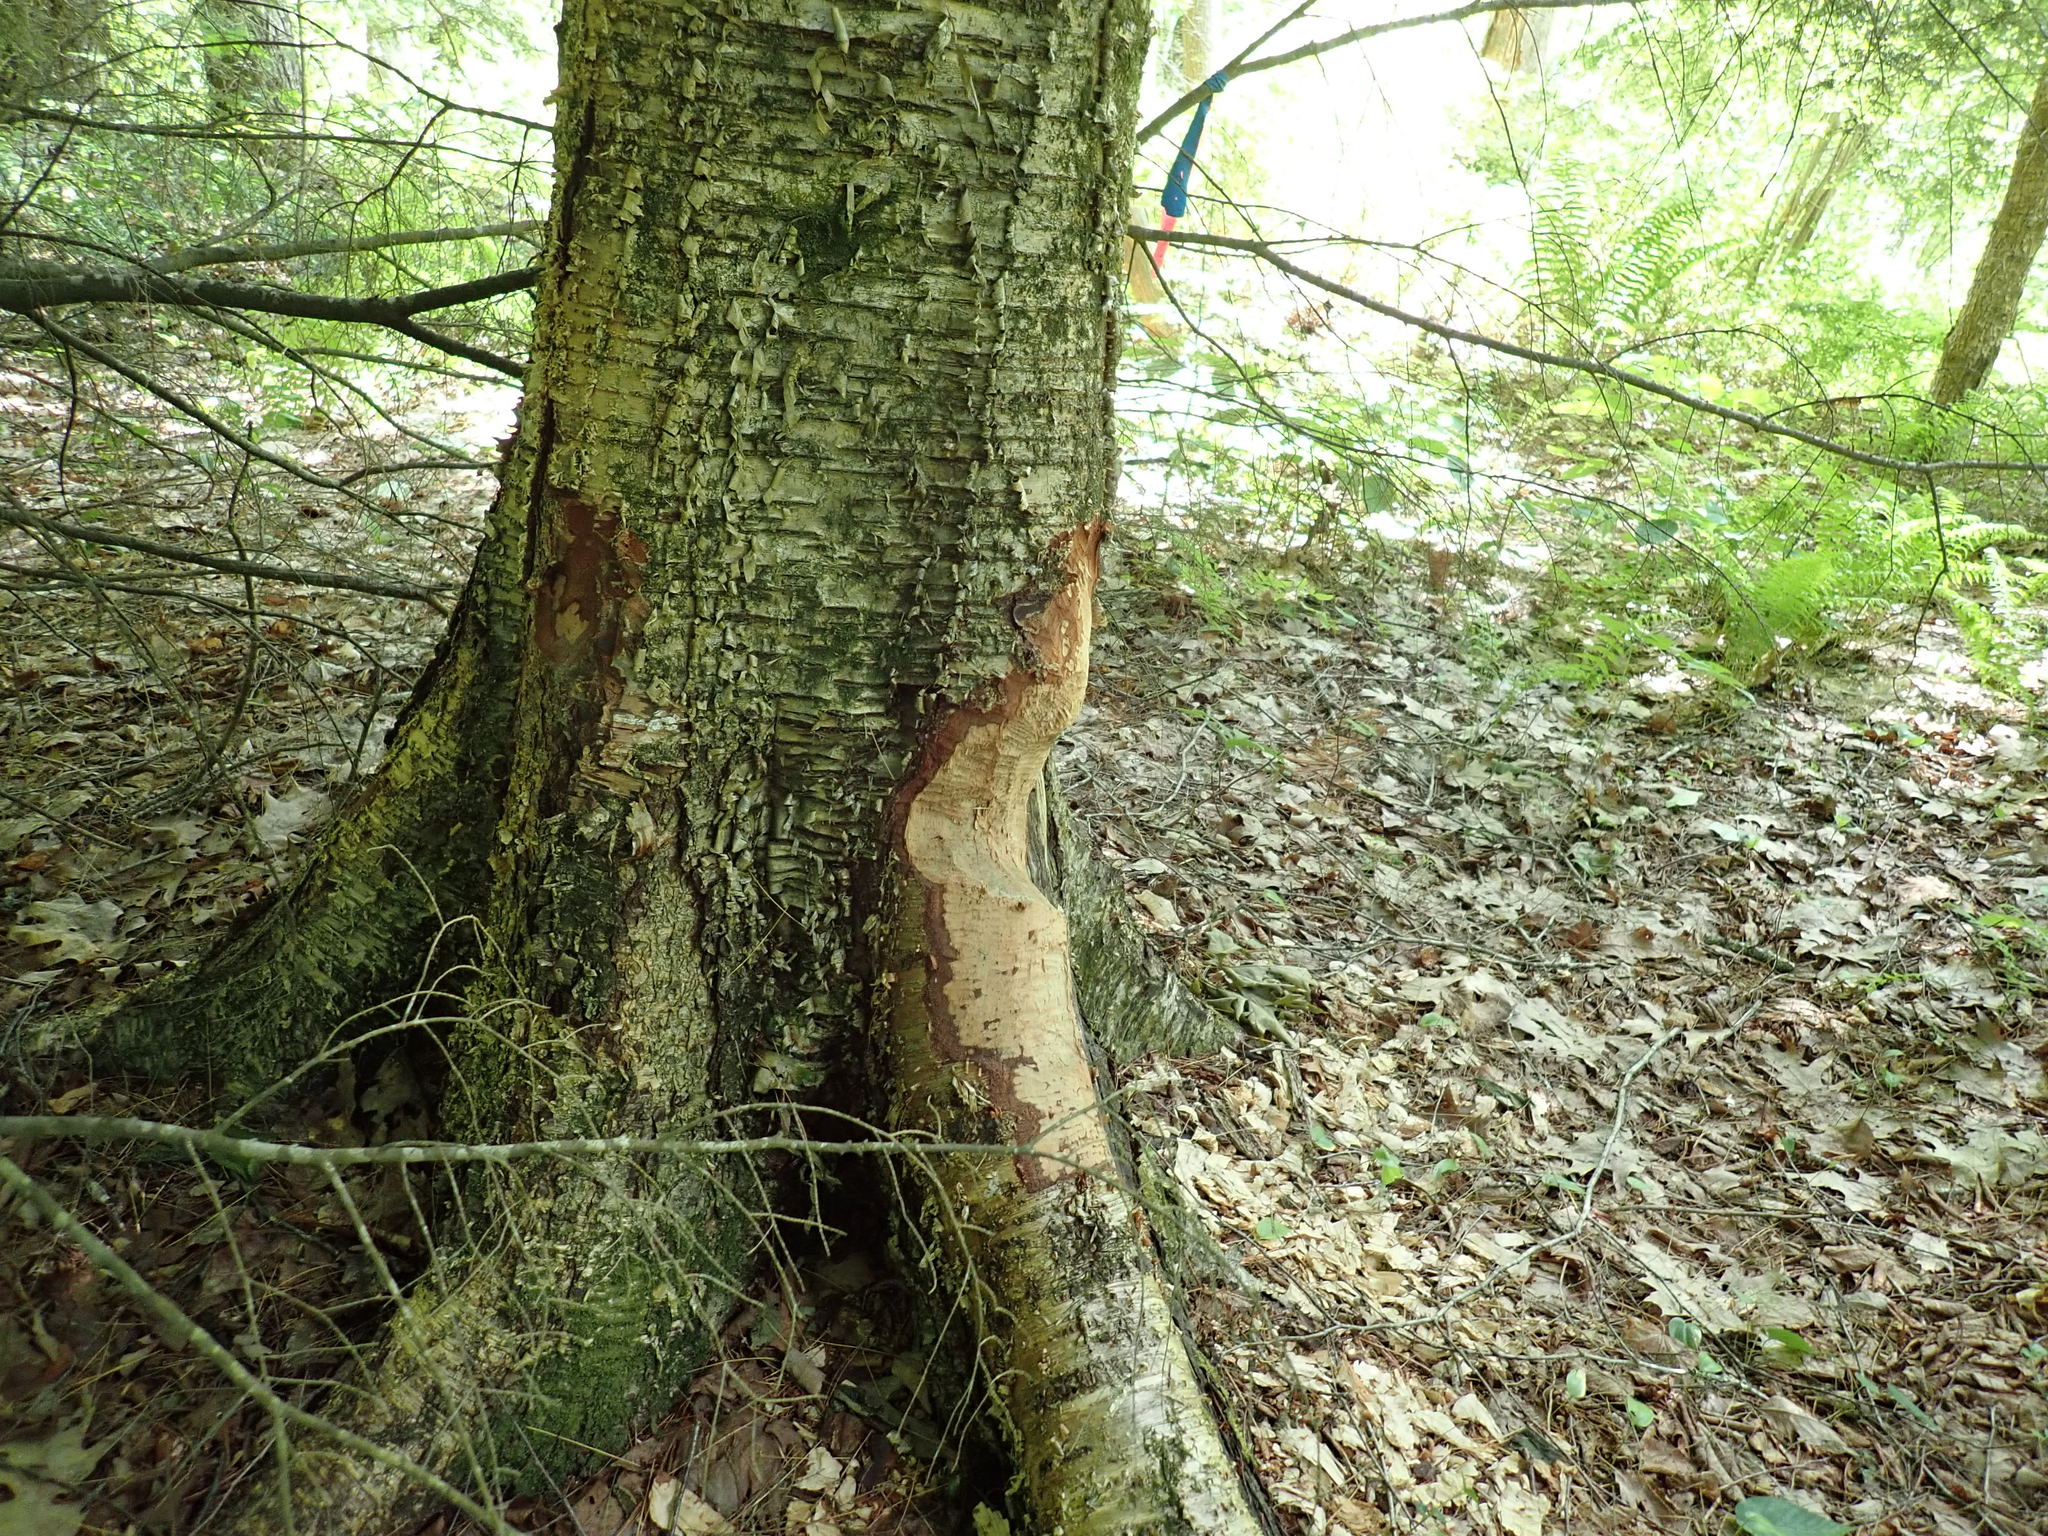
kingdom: Animalia
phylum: Chordata
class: Mammalia
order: Rodentia
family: Castoridae
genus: Castor
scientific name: Castor canadensis
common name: American beaver
